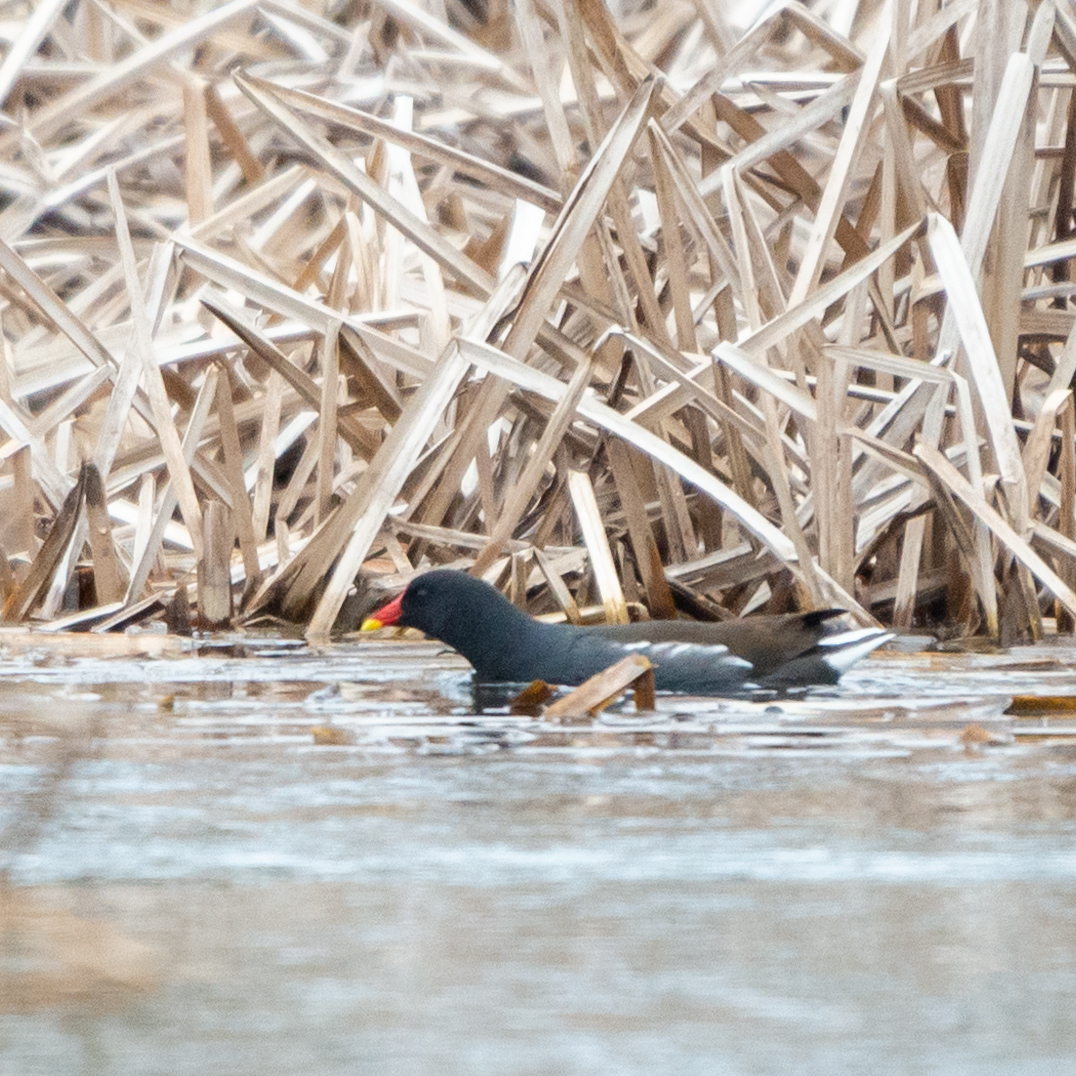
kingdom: Animalia
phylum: Chordata
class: Aves
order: Gruiformes
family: Rallidae
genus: Gallinula
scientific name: Gallinula chloropus
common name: Common moorhen
